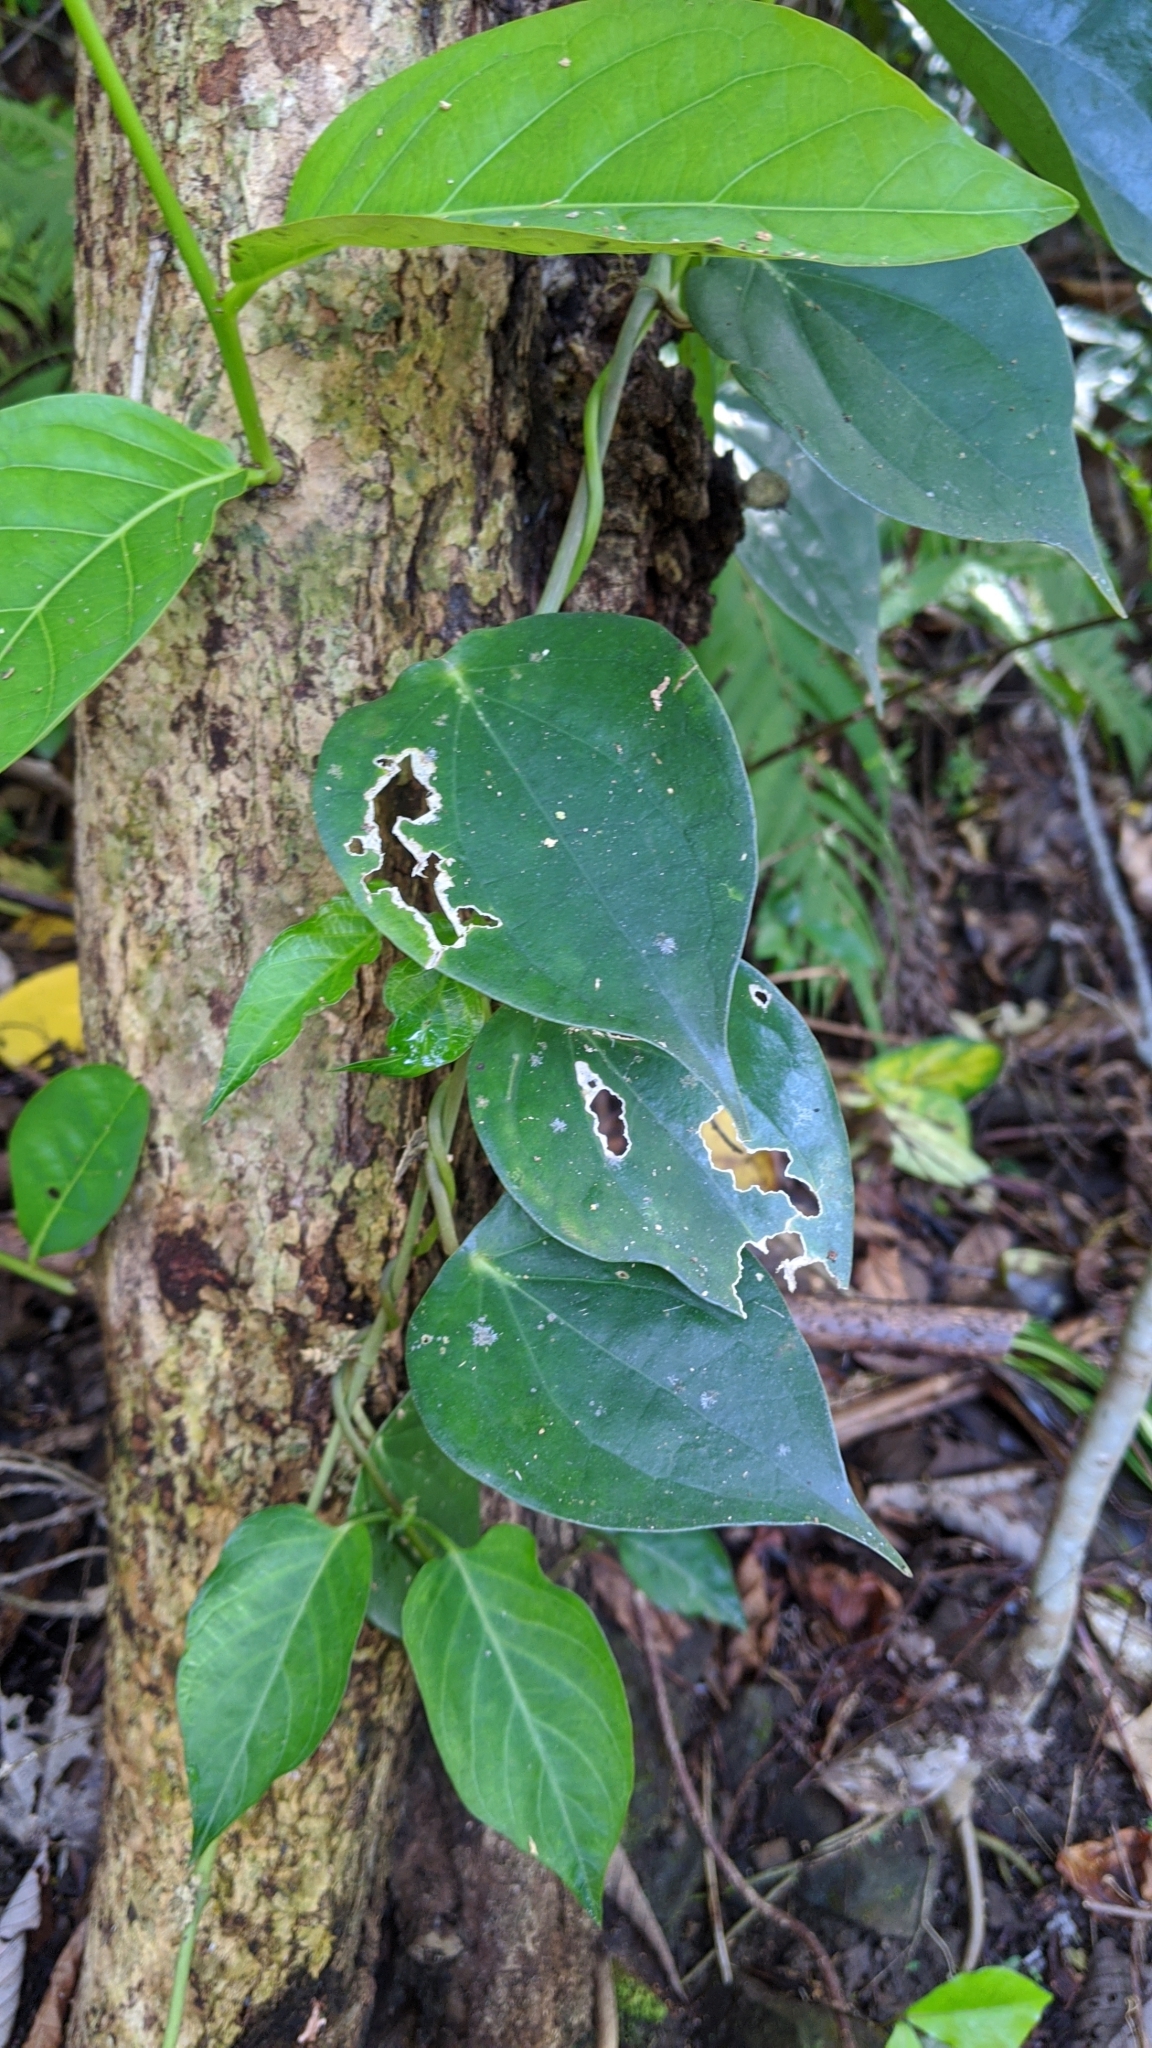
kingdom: Plantae
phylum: Tracheophyta
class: Magnoliopsida
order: Piperales
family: Piperaceae
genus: Piper
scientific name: Piper lanyuense
